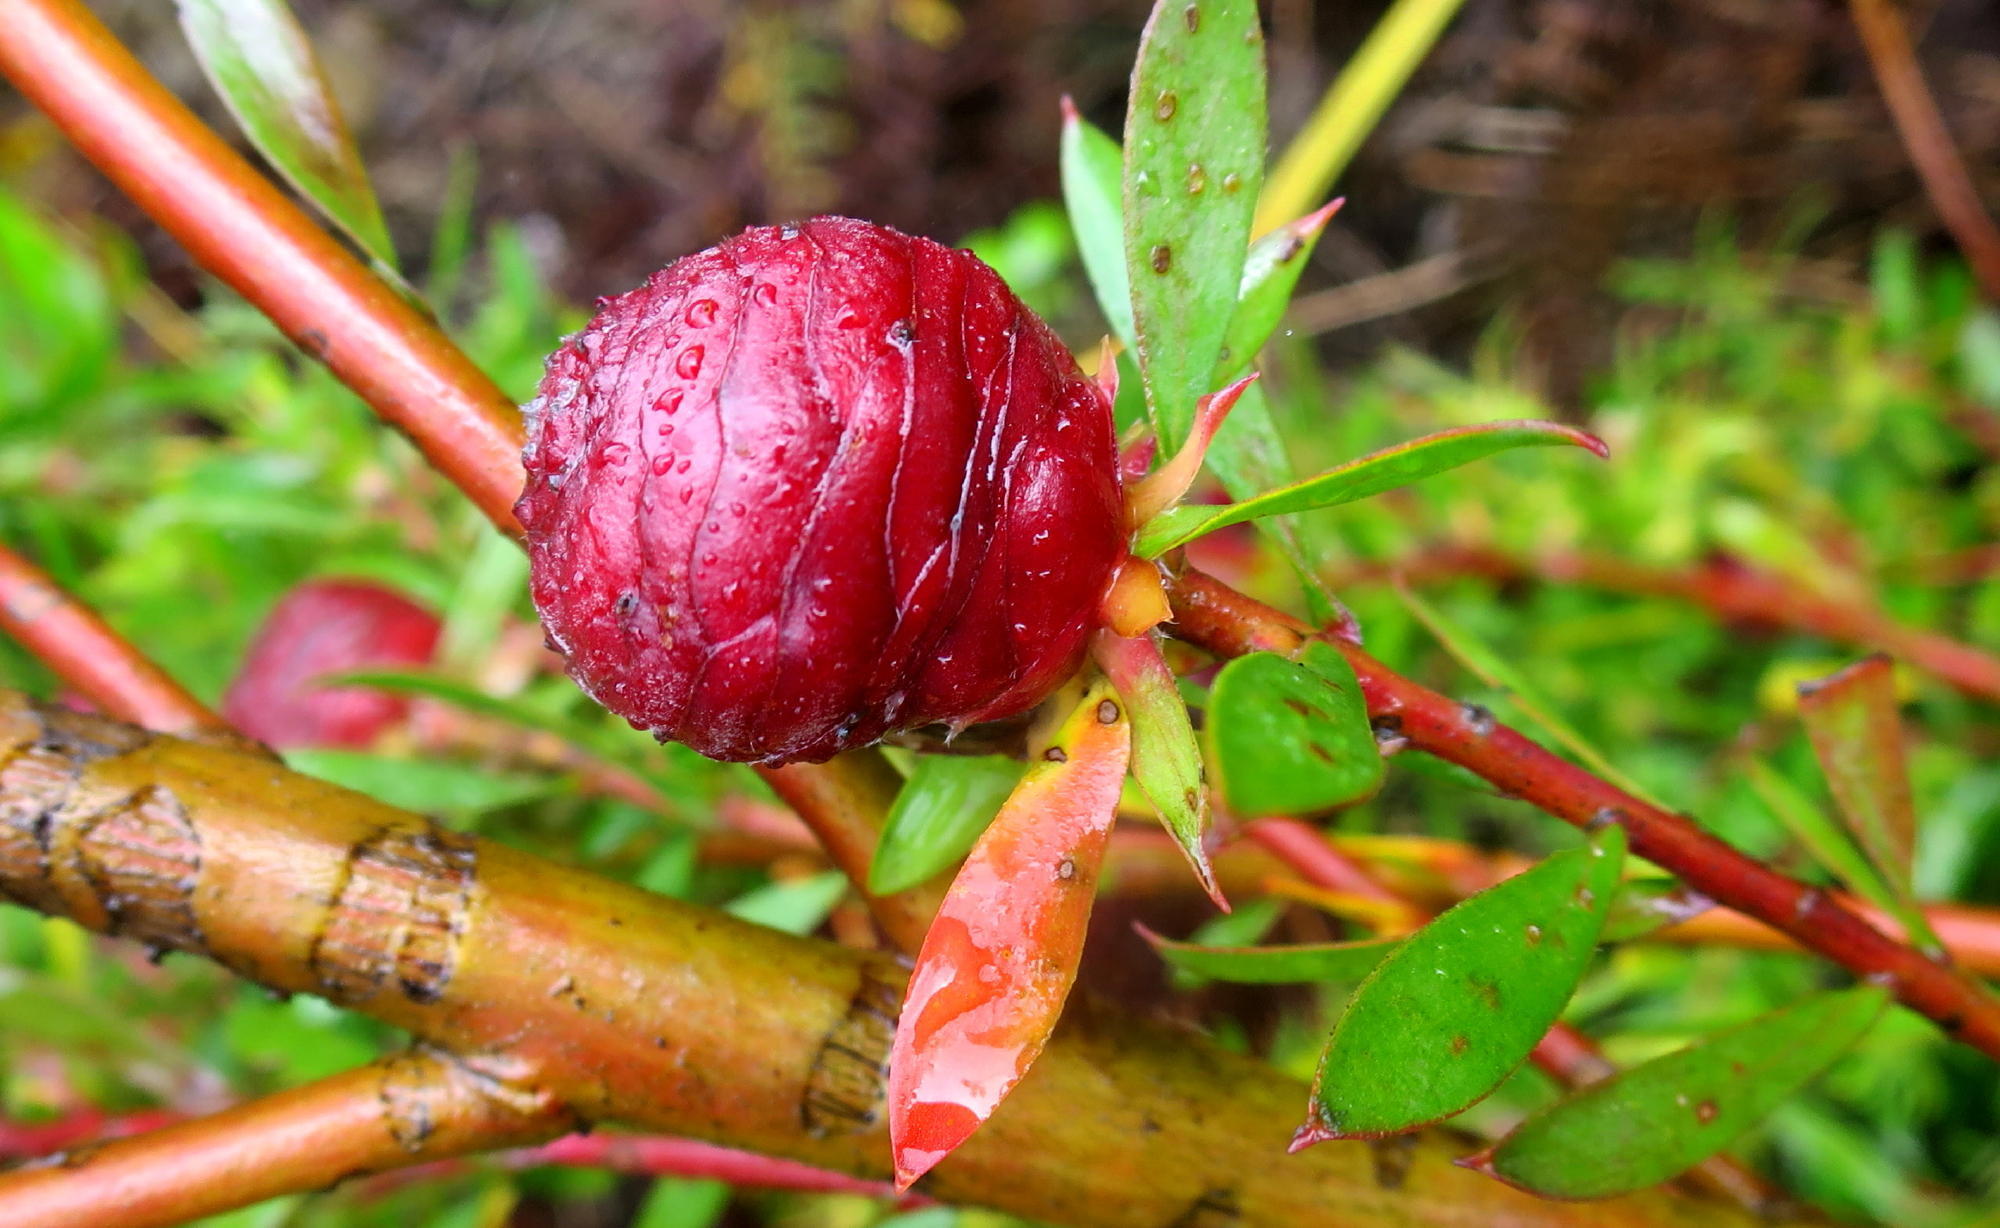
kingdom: Plantae
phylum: Tracheophyta
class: Magnoliopsida
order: Proteales
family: Proteaceae
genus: Leucadendron
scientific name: Leucadendron conicum
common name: Garden route conebush
